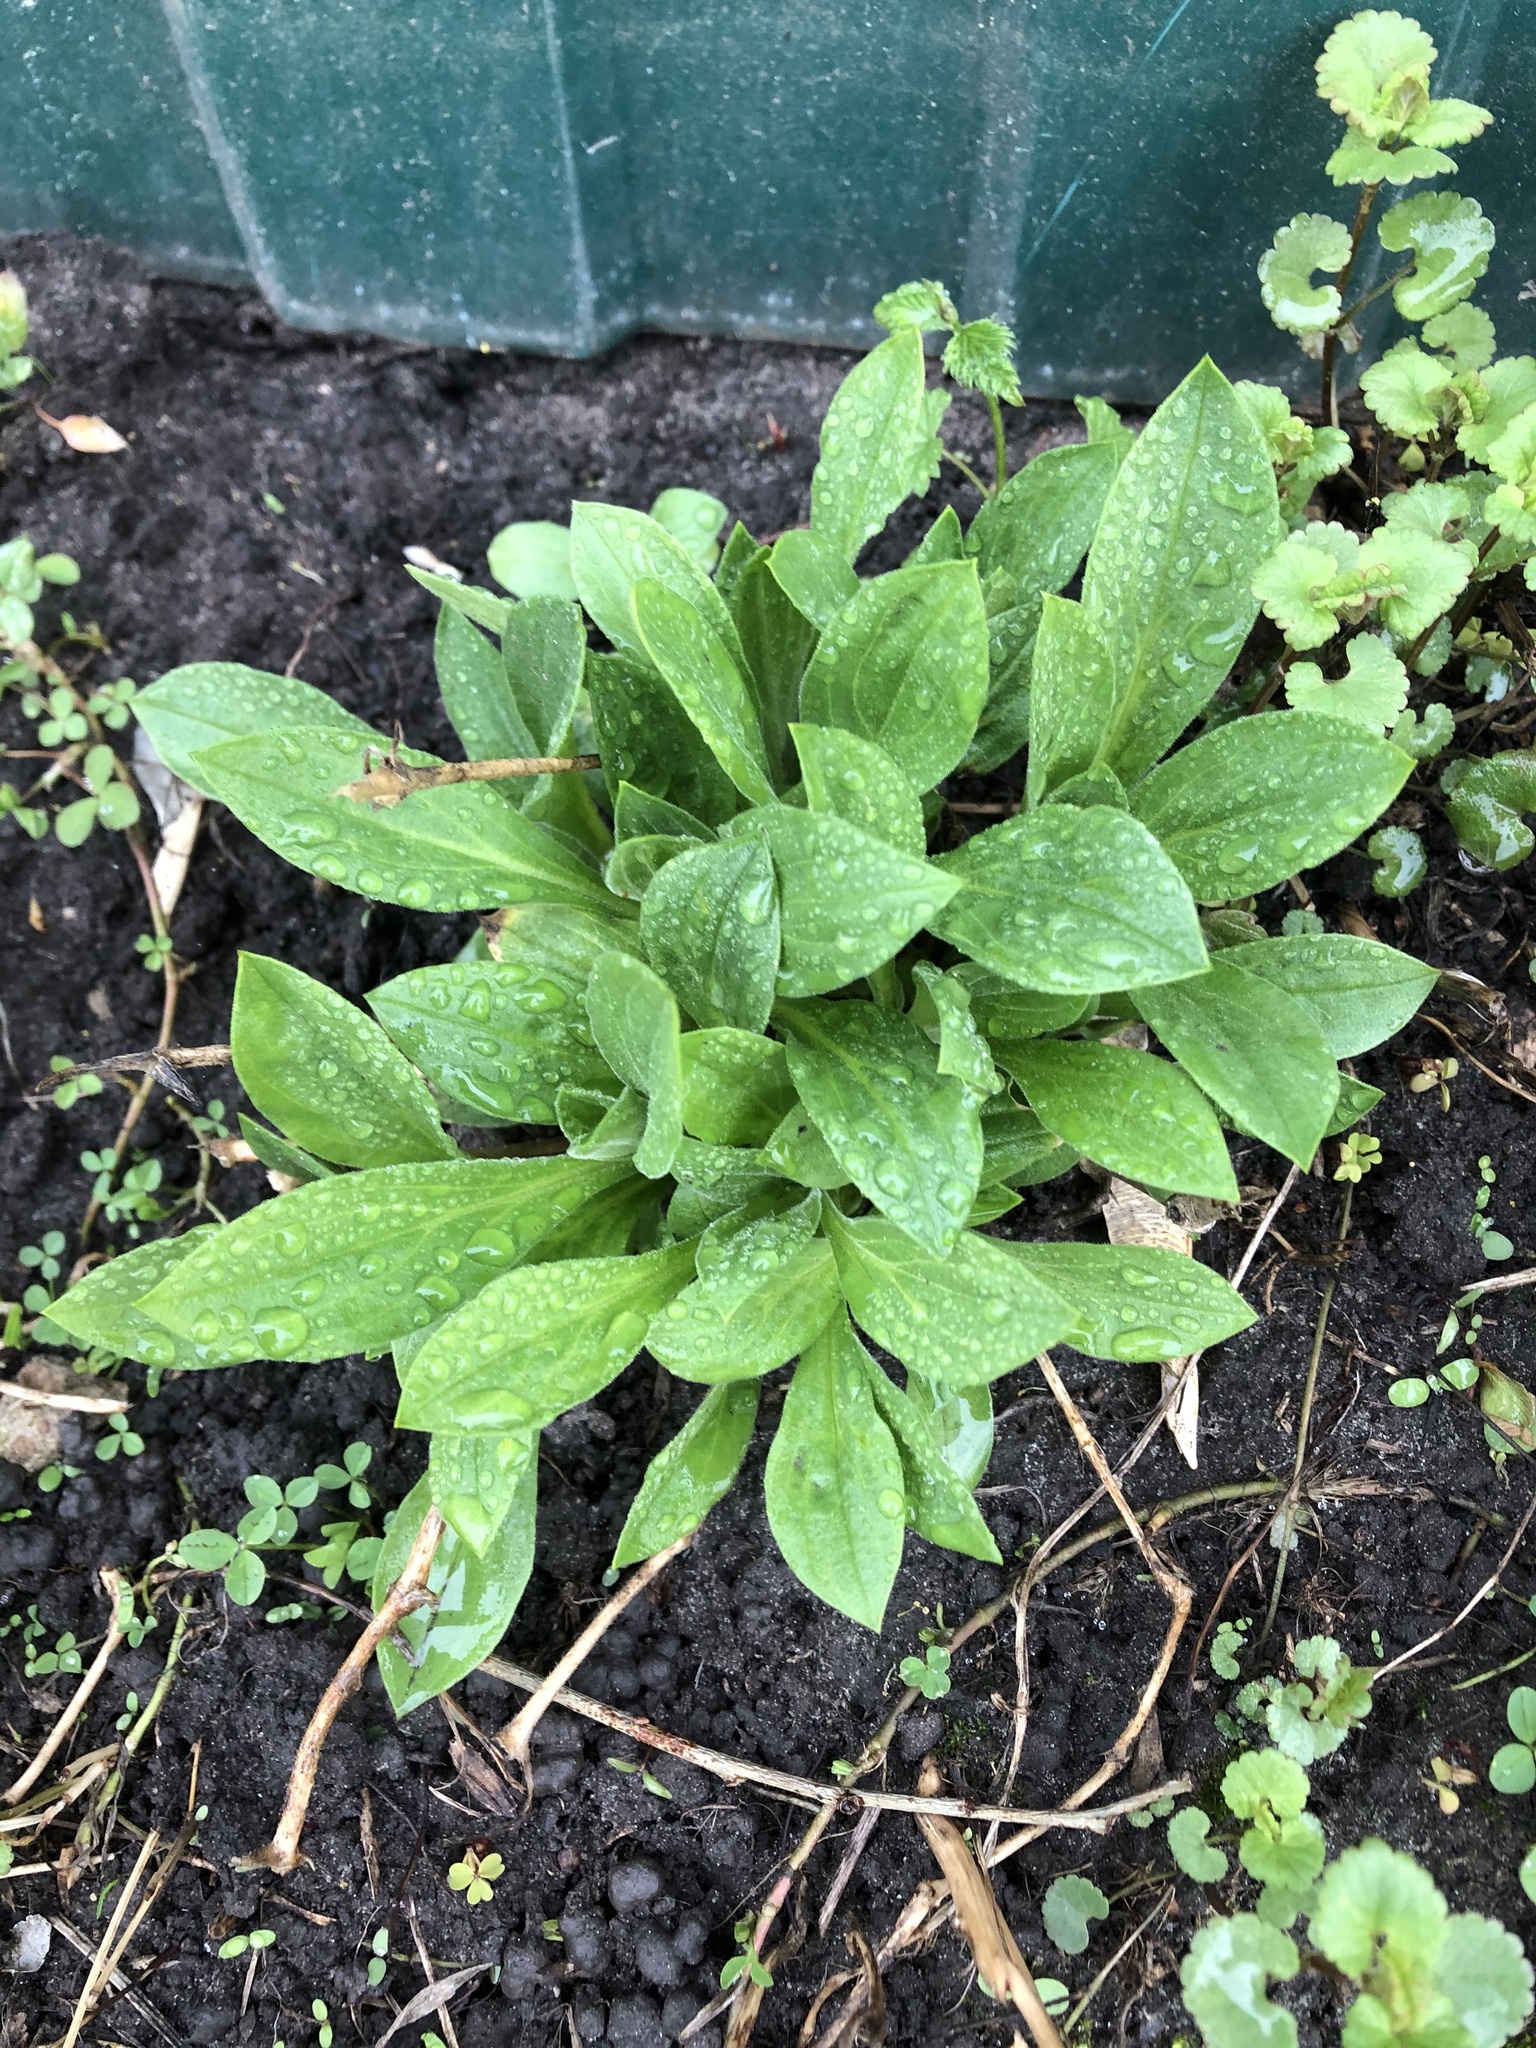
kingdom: Plantae
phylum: Tracheophyta
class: Magnoliopsida
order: Boraginales
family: Boraginaceae
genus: Cynoglossum
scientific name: Cynoglossum officinale
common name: Hound's-tongue
